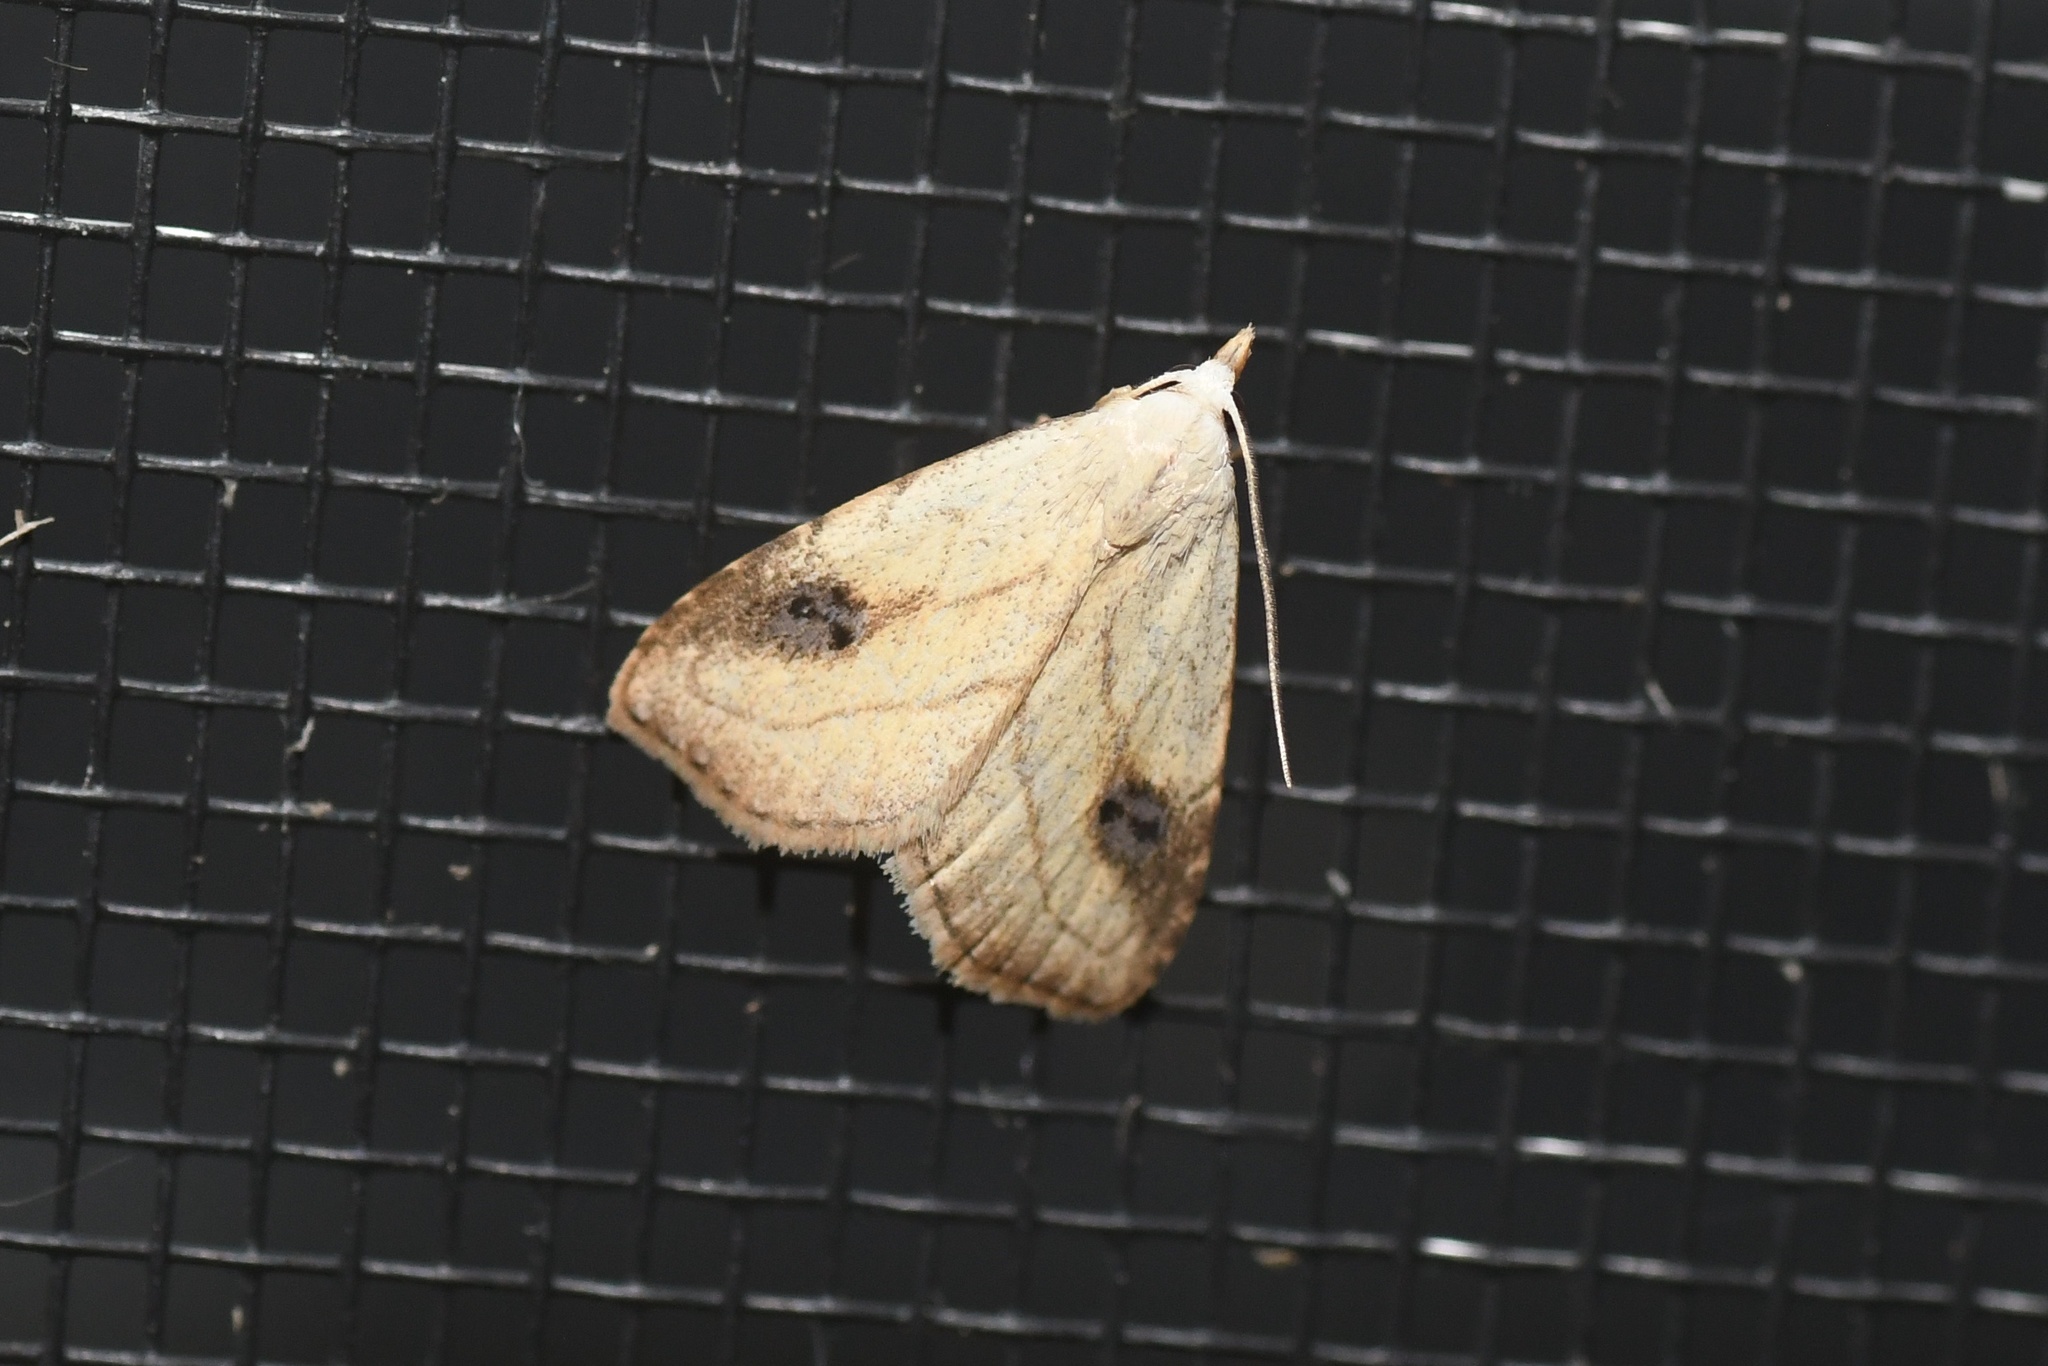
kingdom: Animalia
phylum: Arthropoda
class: Insecta
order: Lepidoptera
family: Erebidae
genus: Rivula
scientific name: Rivula propinqualis
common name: Spotted grass moth
